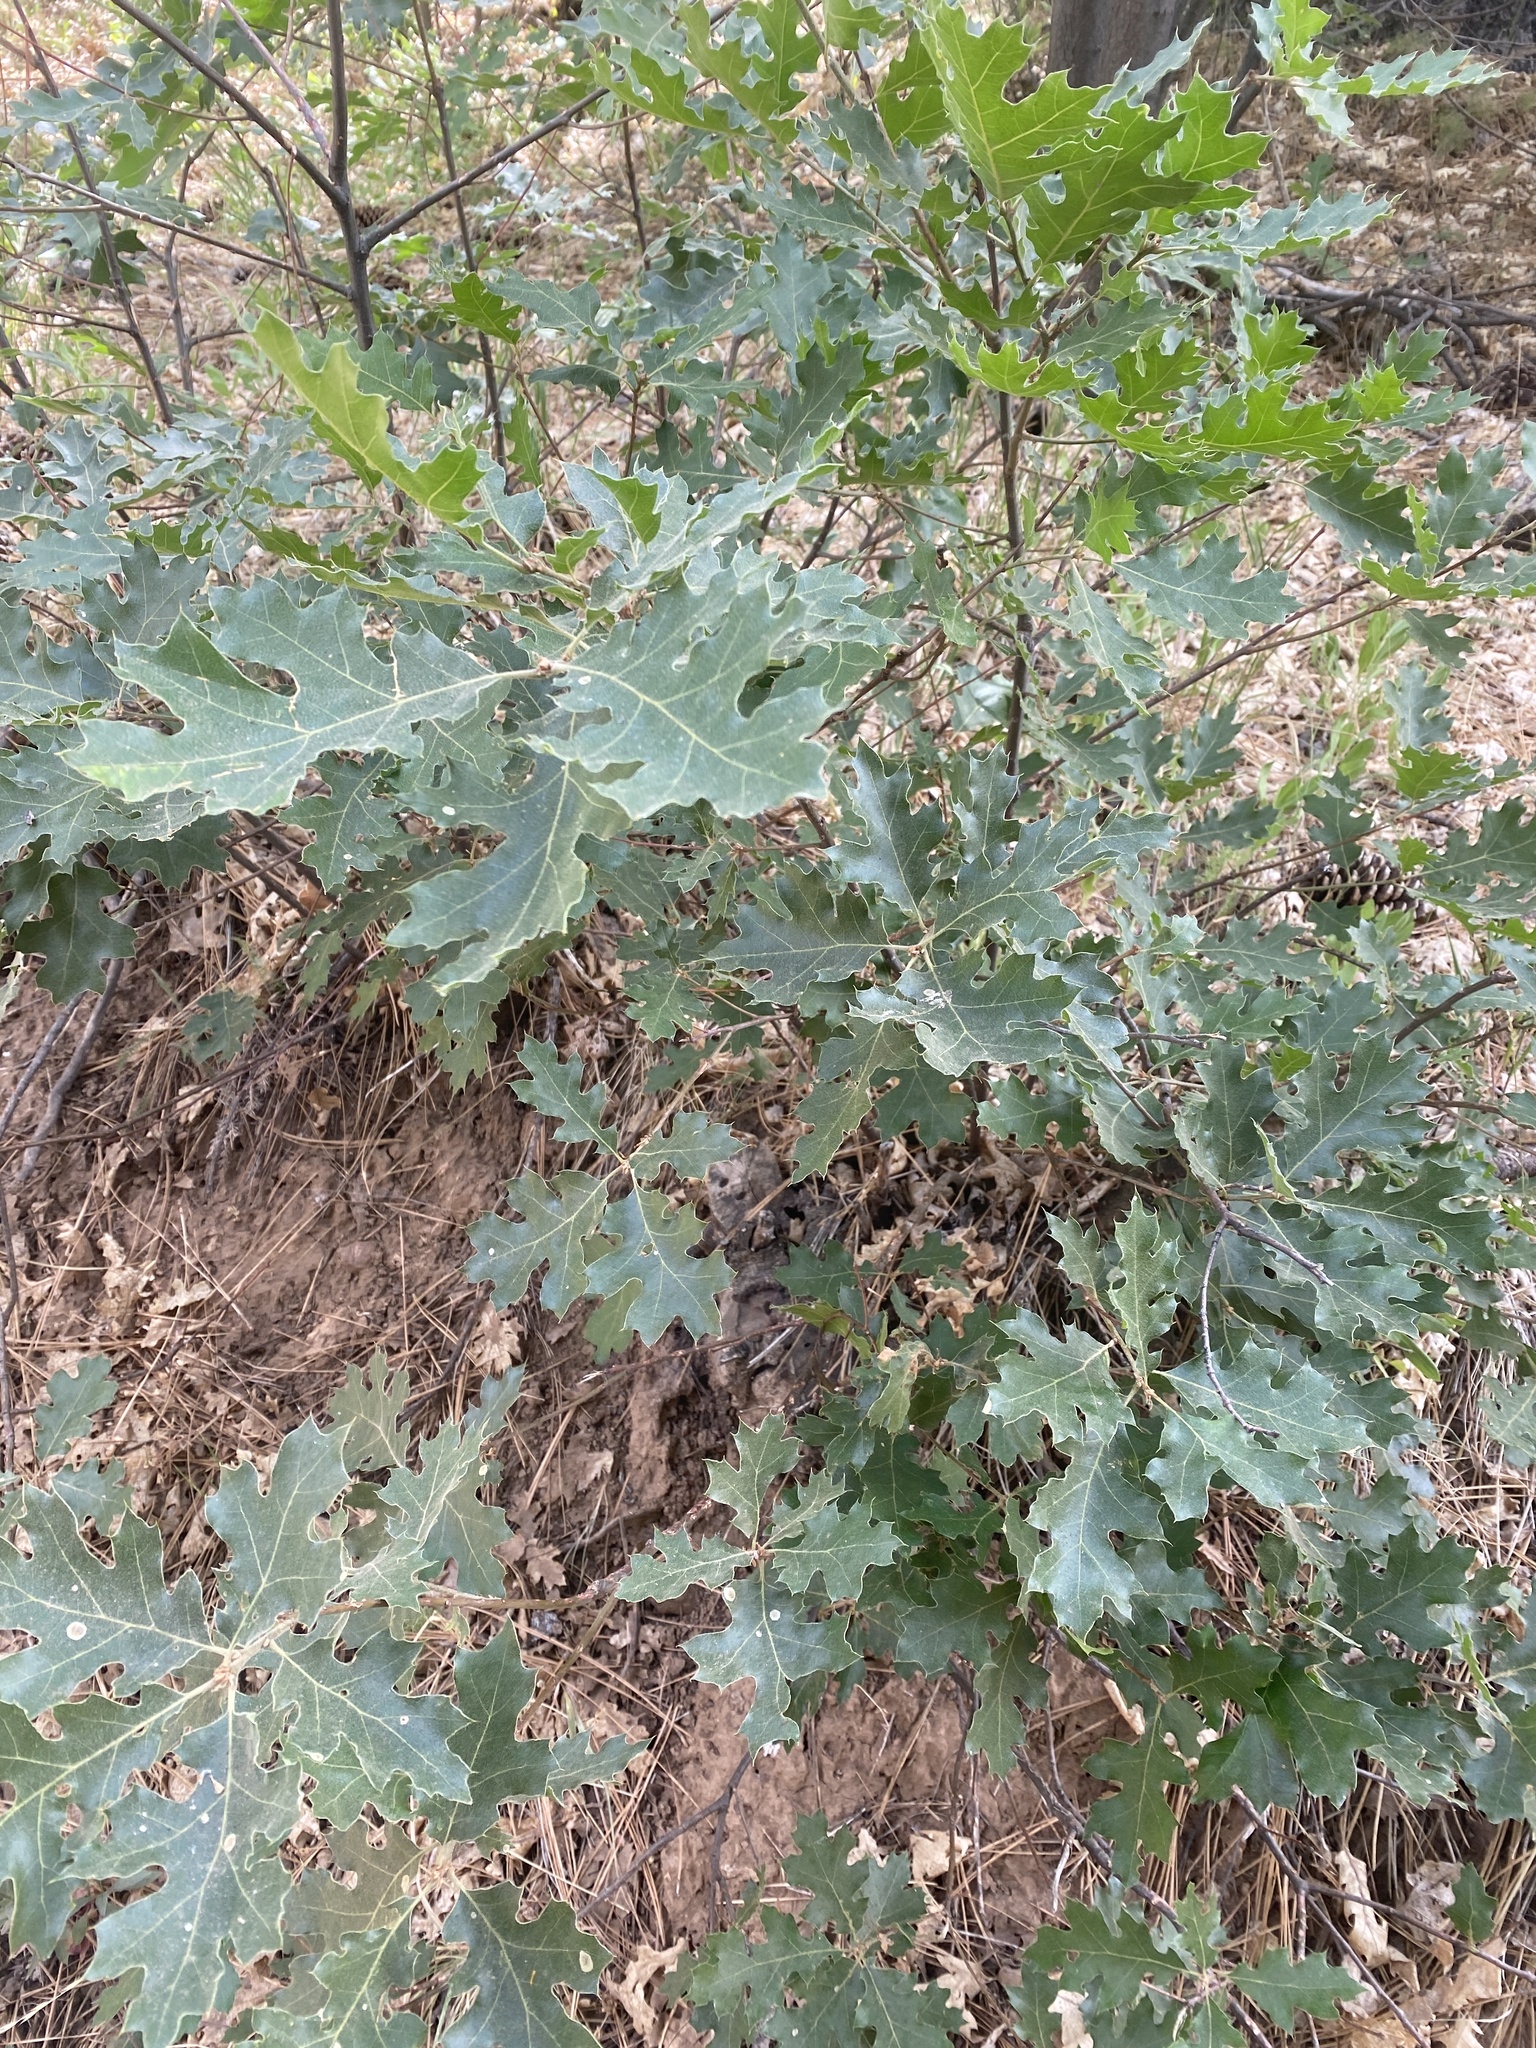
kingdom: Plantae
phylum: Tracheophyta
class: Magnoliopsida
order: Fagales
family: Fagaceae
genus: Quercus
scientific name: Quercus kelloggii
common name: California black oak
